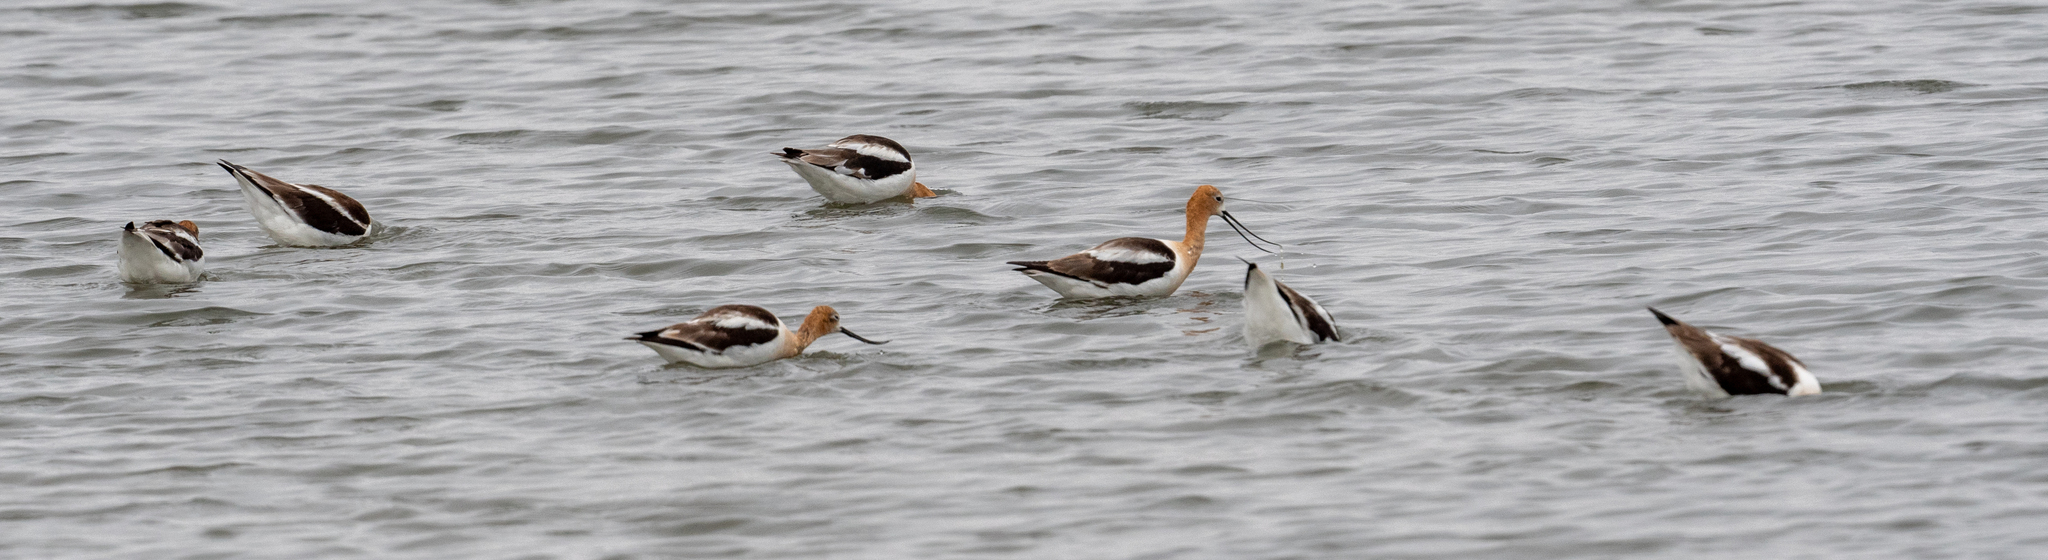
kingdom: Animalia
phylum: Chordata
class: Aves
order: Charadriiformes
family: Recurvirostridae
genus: Recurvirostra
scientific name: Recurvirostra americana
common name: American avocet
